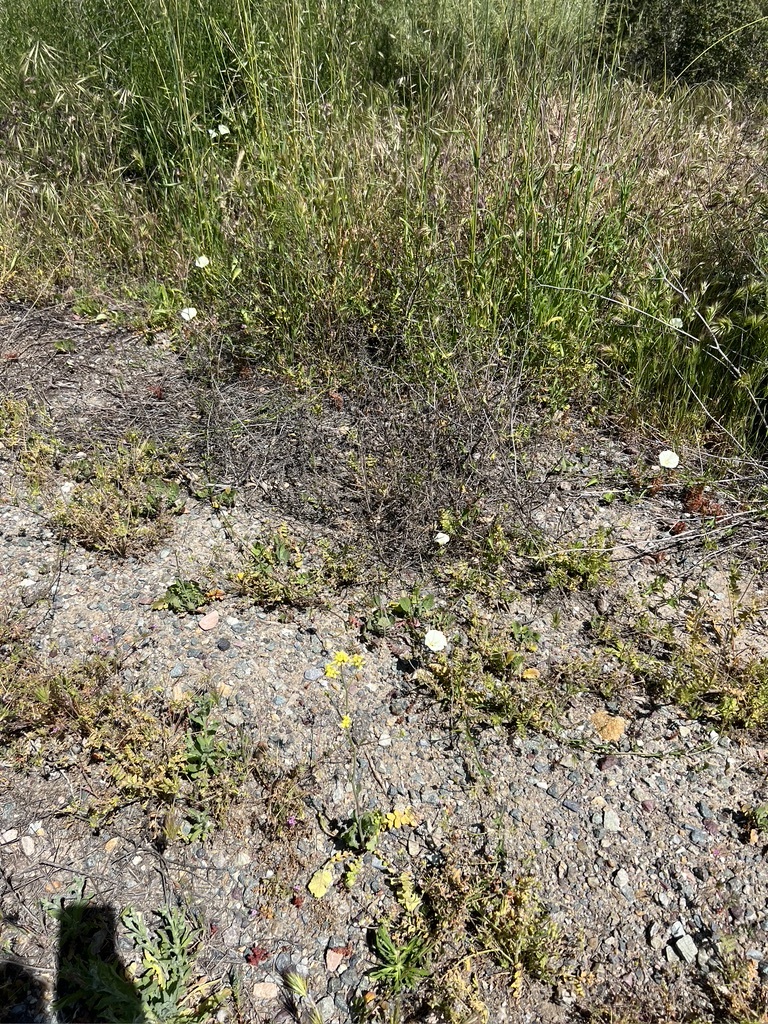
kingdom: Plantae
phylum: Tracheophyta
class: Magnoliopsida
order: Solanales
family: Convolvulaceae
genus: Calystegia
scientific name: Calystegia macrostegia
